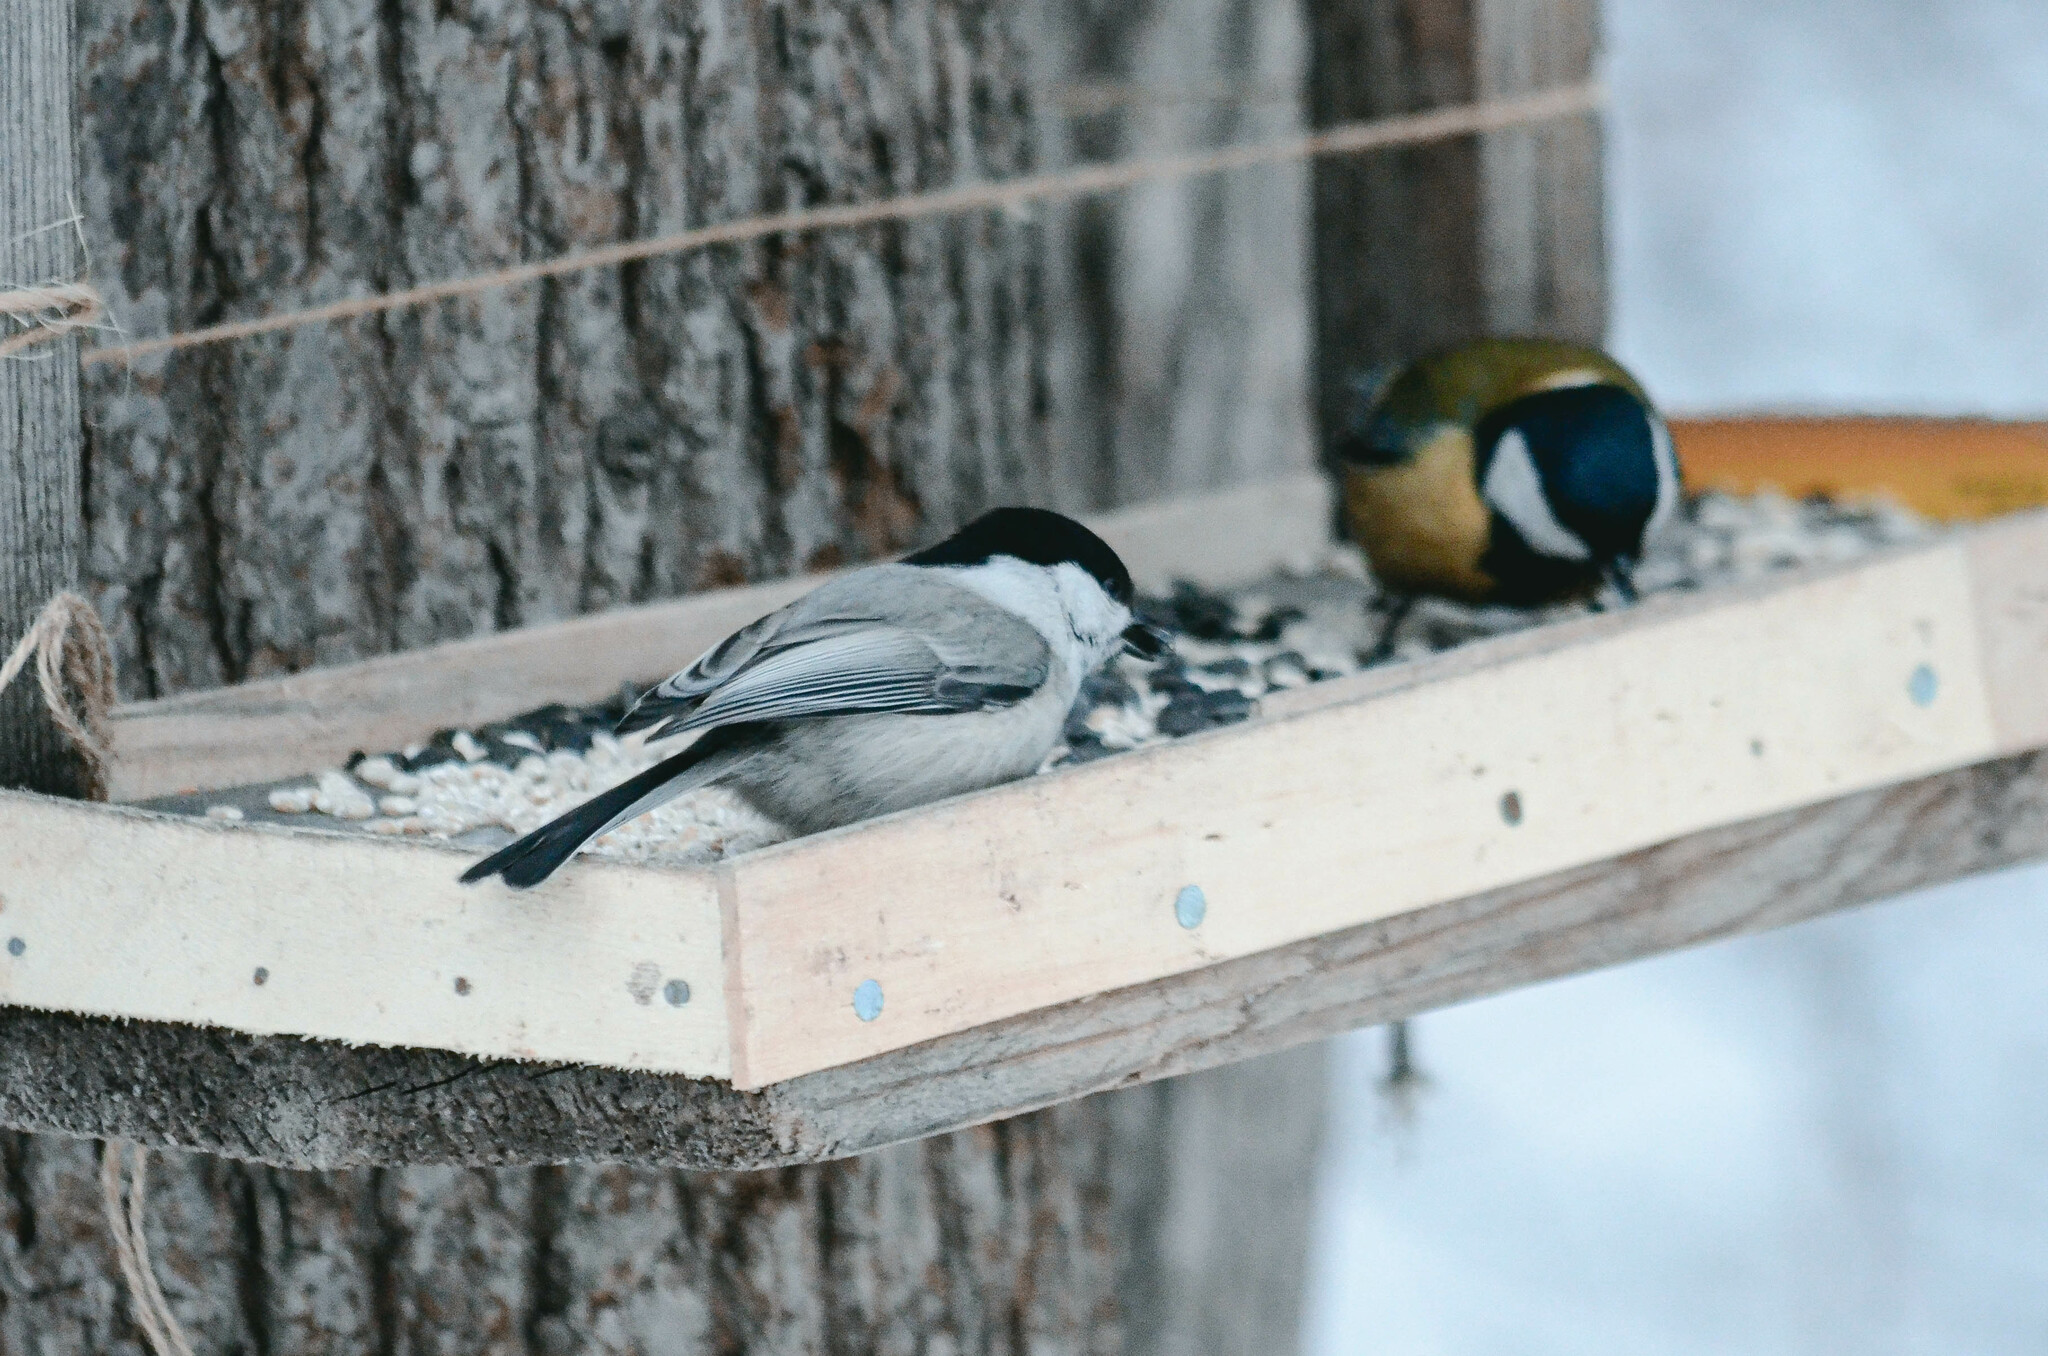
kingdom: Animalia
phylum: Chordata
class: Aves
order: Passeriformes
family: Paridae
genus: Poecile
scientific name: Poecile montanus
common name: Willow tit
